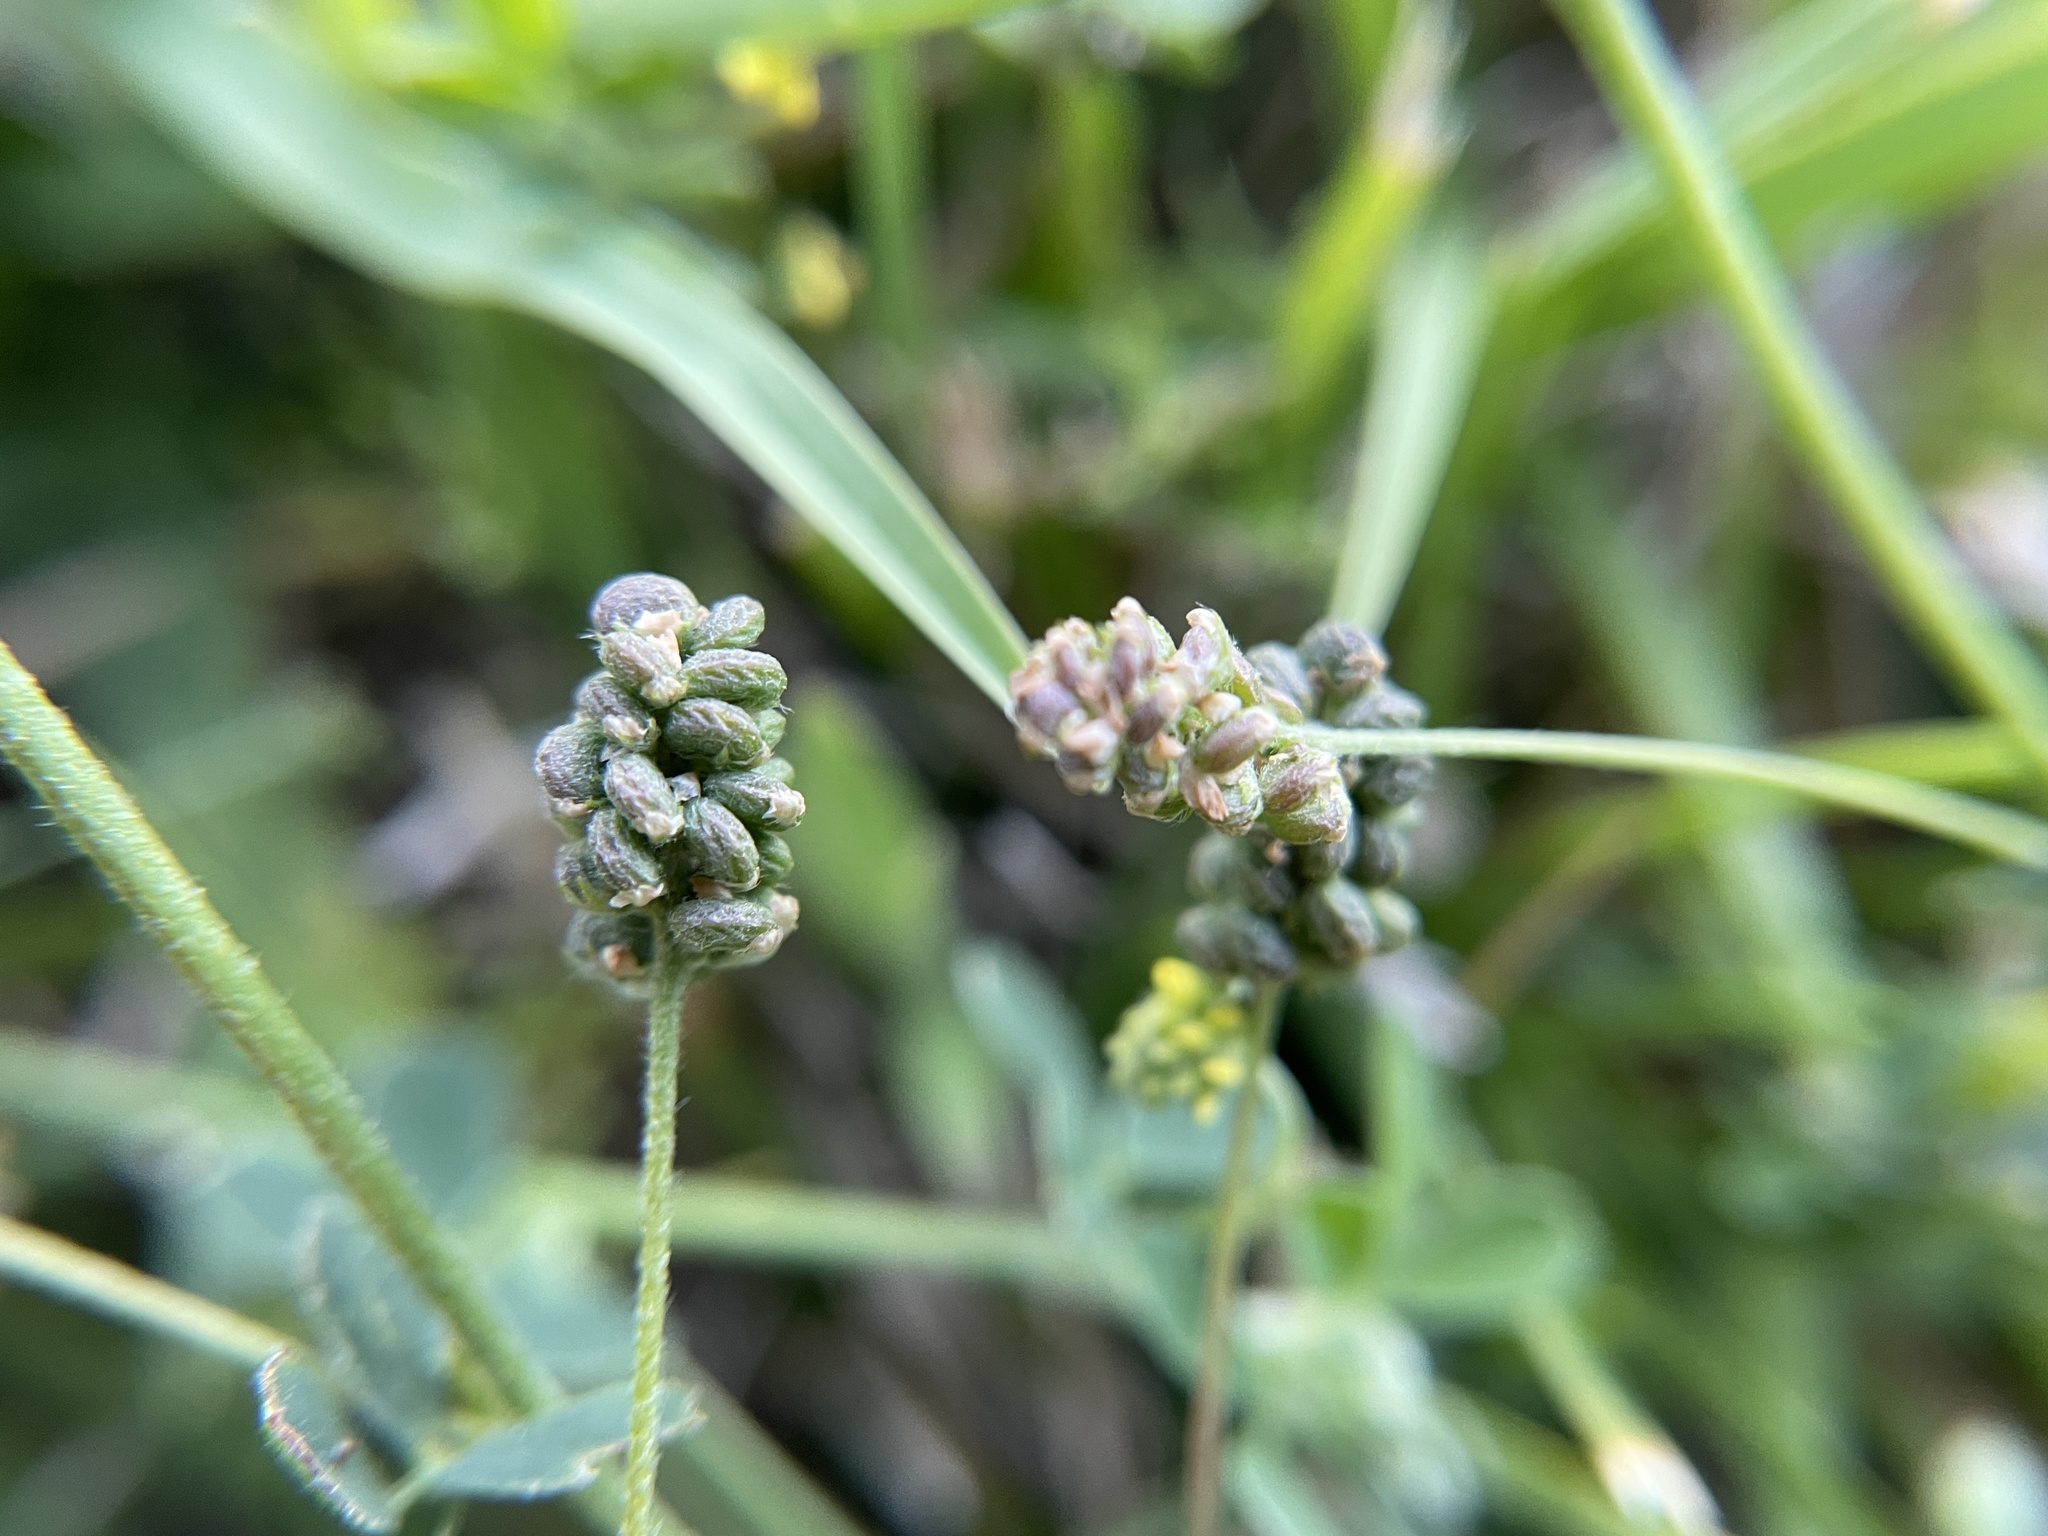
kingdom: Plantae
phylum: Tracheophyta
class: Magnoliopsida
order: Fabales
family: Fabaceae
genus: Medicago
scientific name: Medicago lupulina
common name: Black medick
